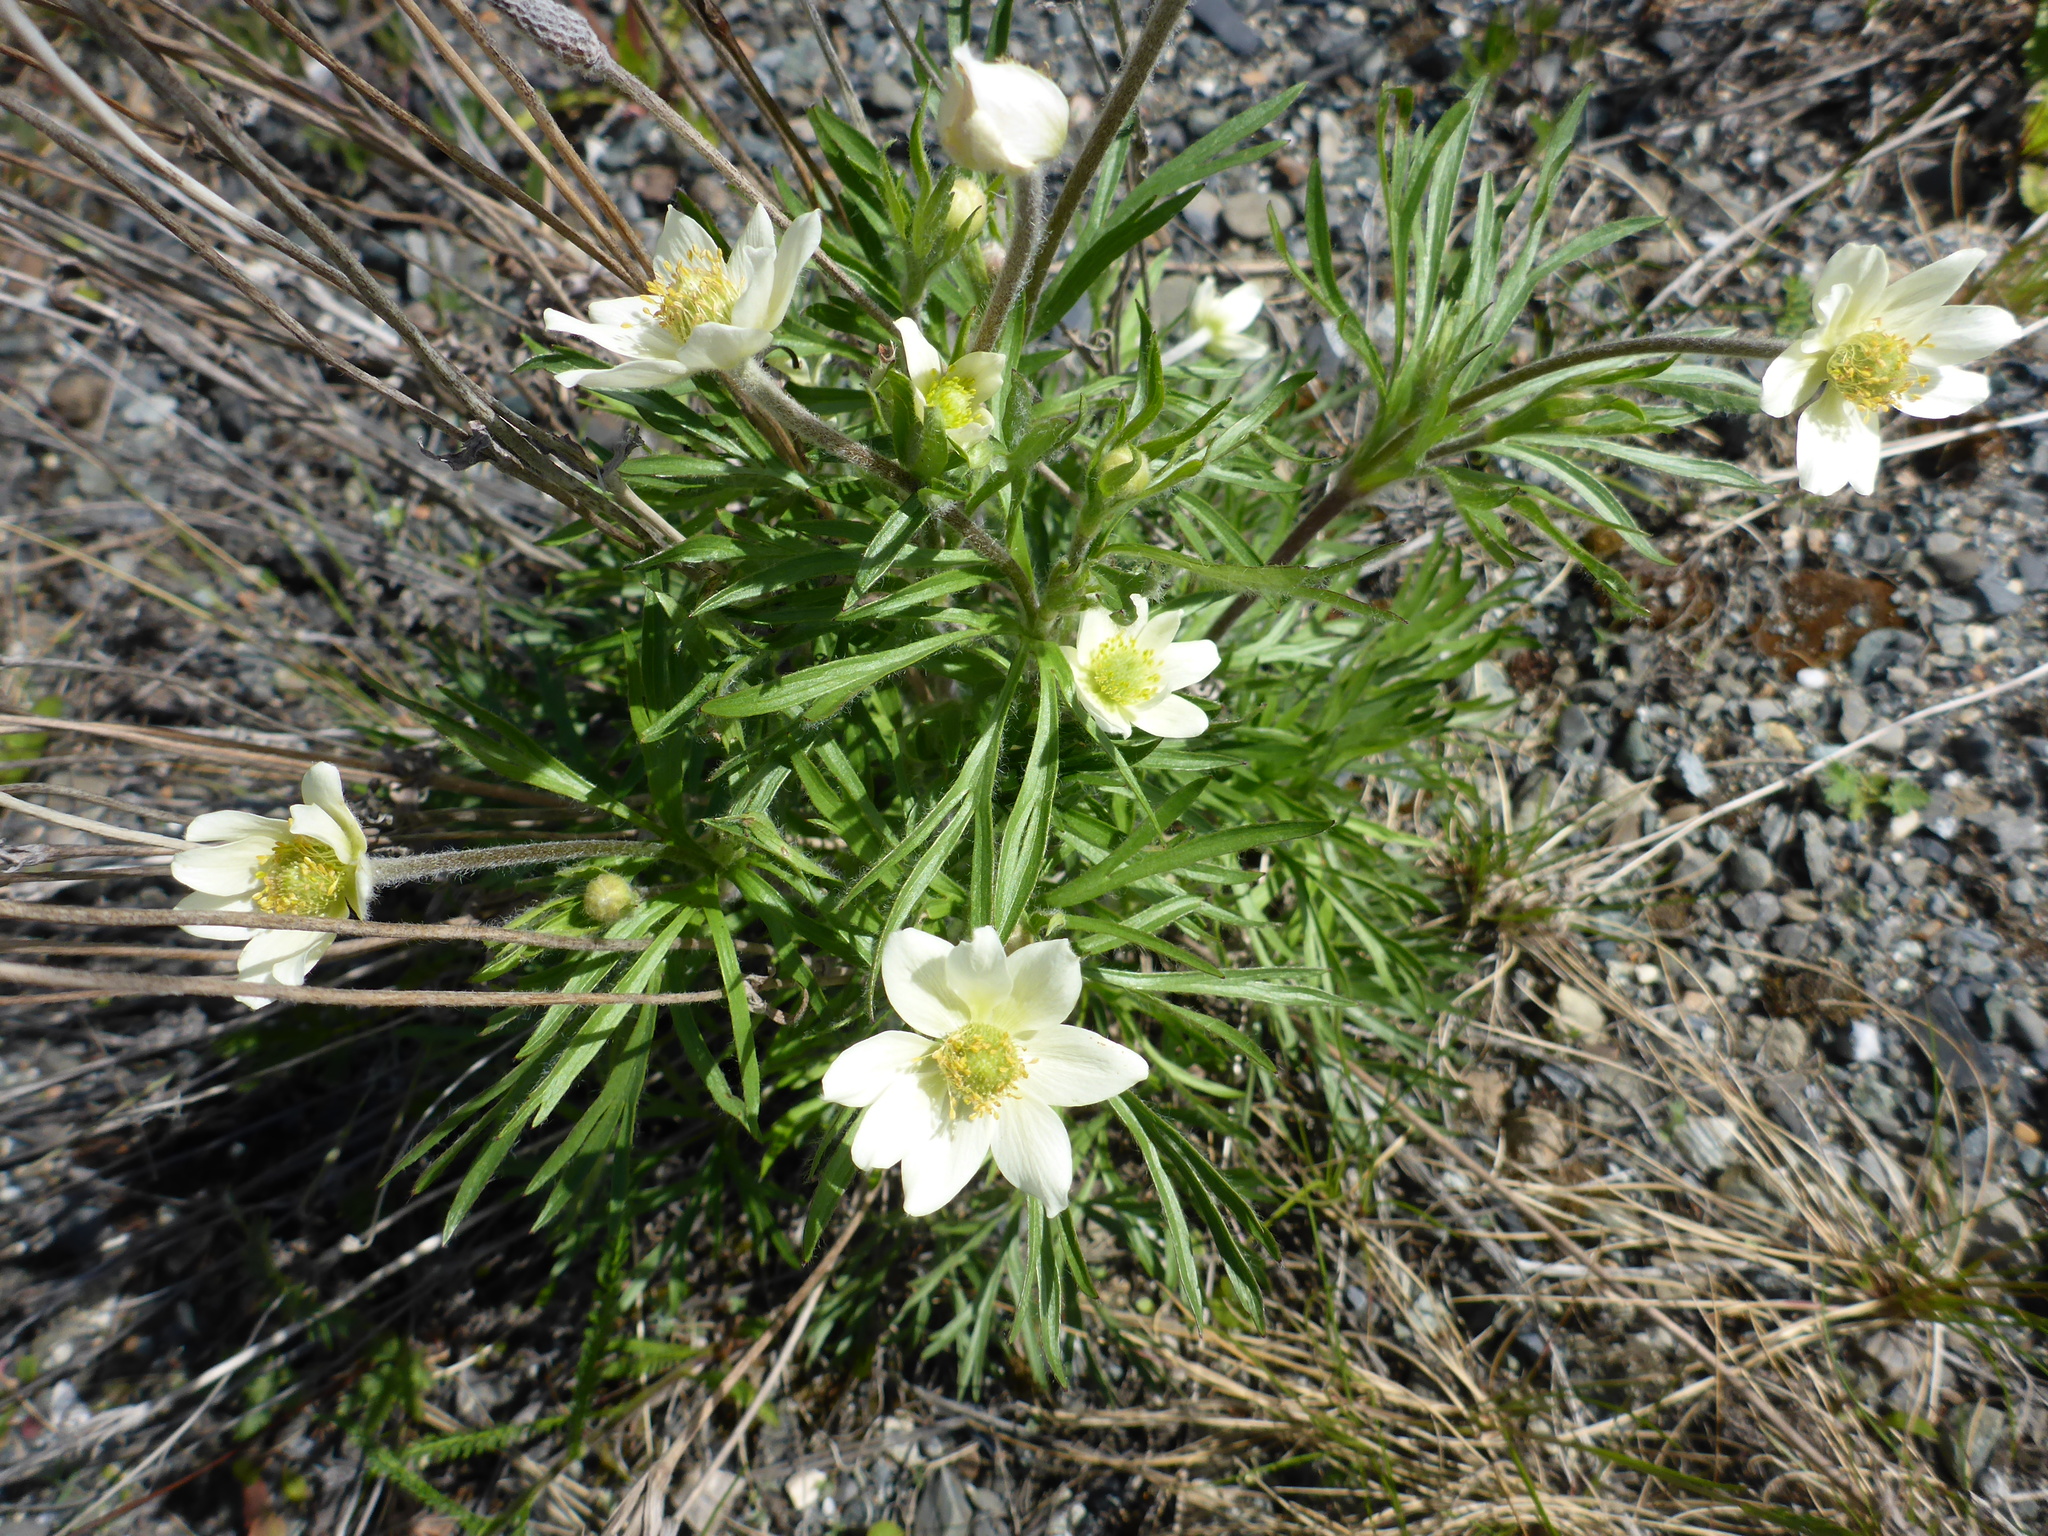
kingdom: Plantae
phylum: Tracheophyta
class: Magnoliopsida
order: Ranunculales
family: Ranunculaceae
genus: Anemone
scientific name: Anemone multifida
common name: Bird's-foot anemone
